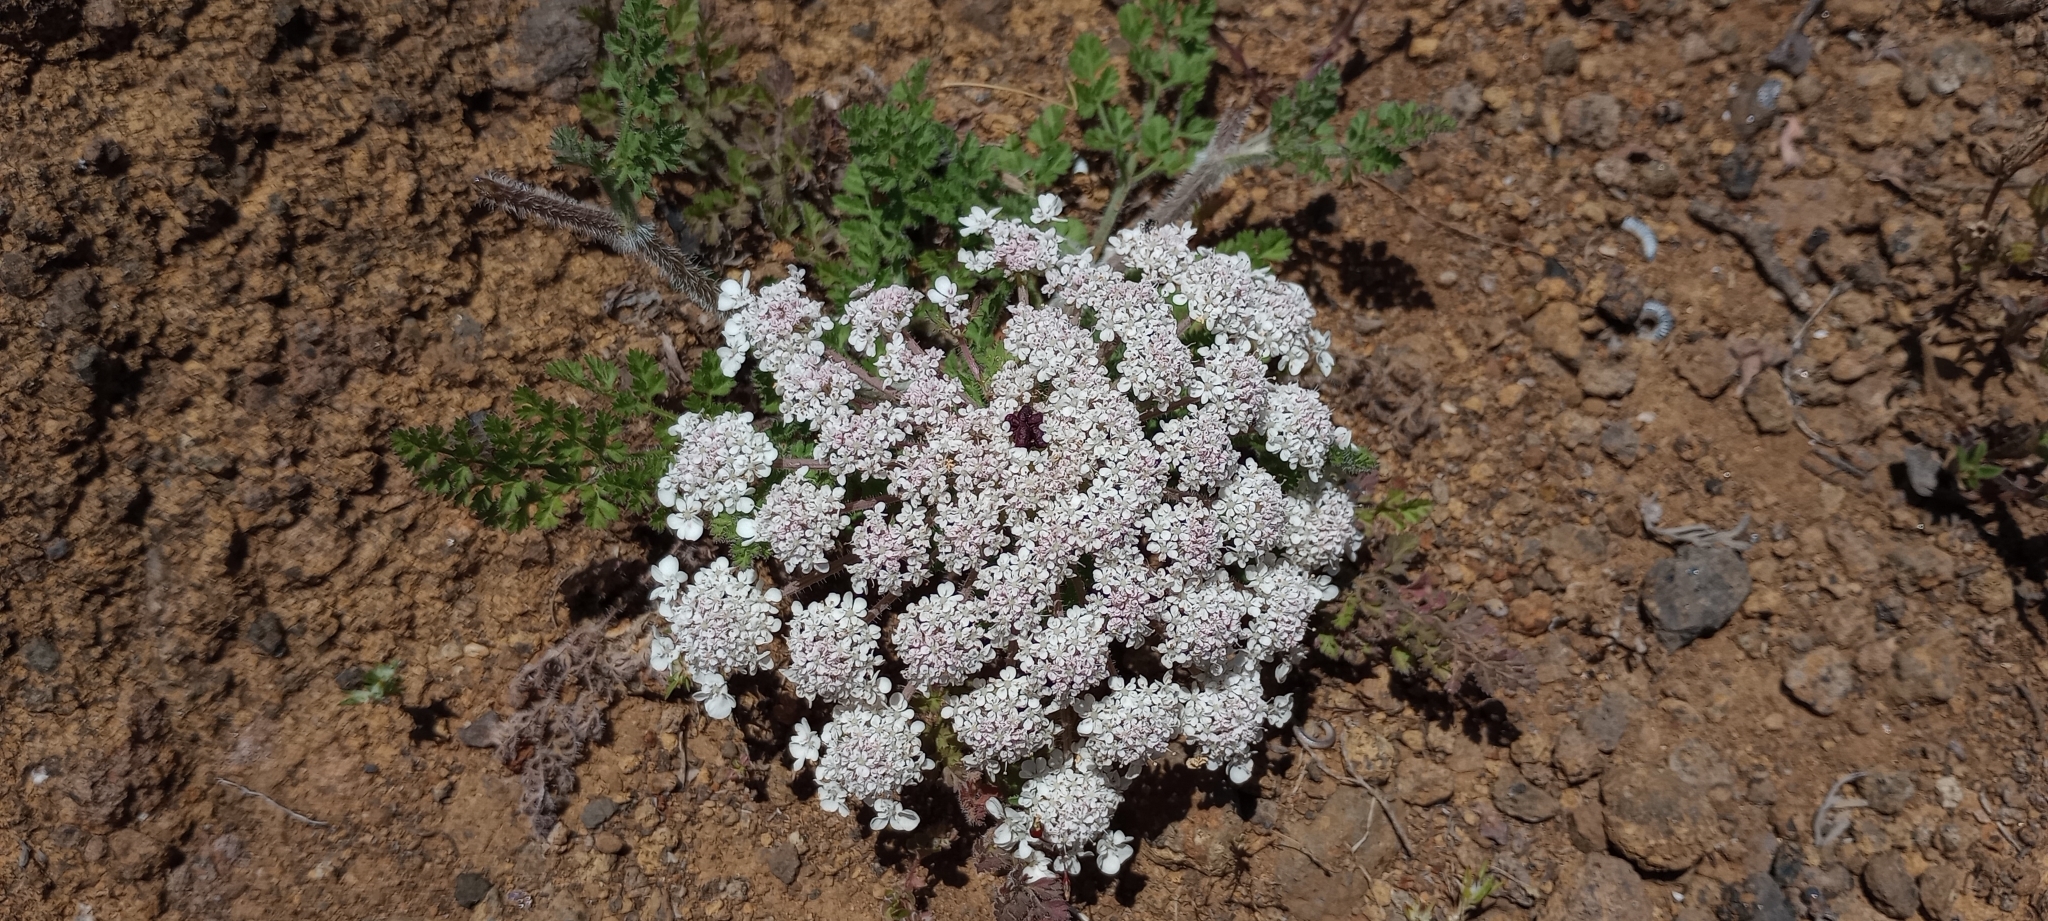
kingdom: Plantae
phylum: Tracheophyta
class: Magnoliopsida
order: Apiales
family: Apiaceae
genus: Daucus
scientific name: Daucus carota
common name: Wild carrot
